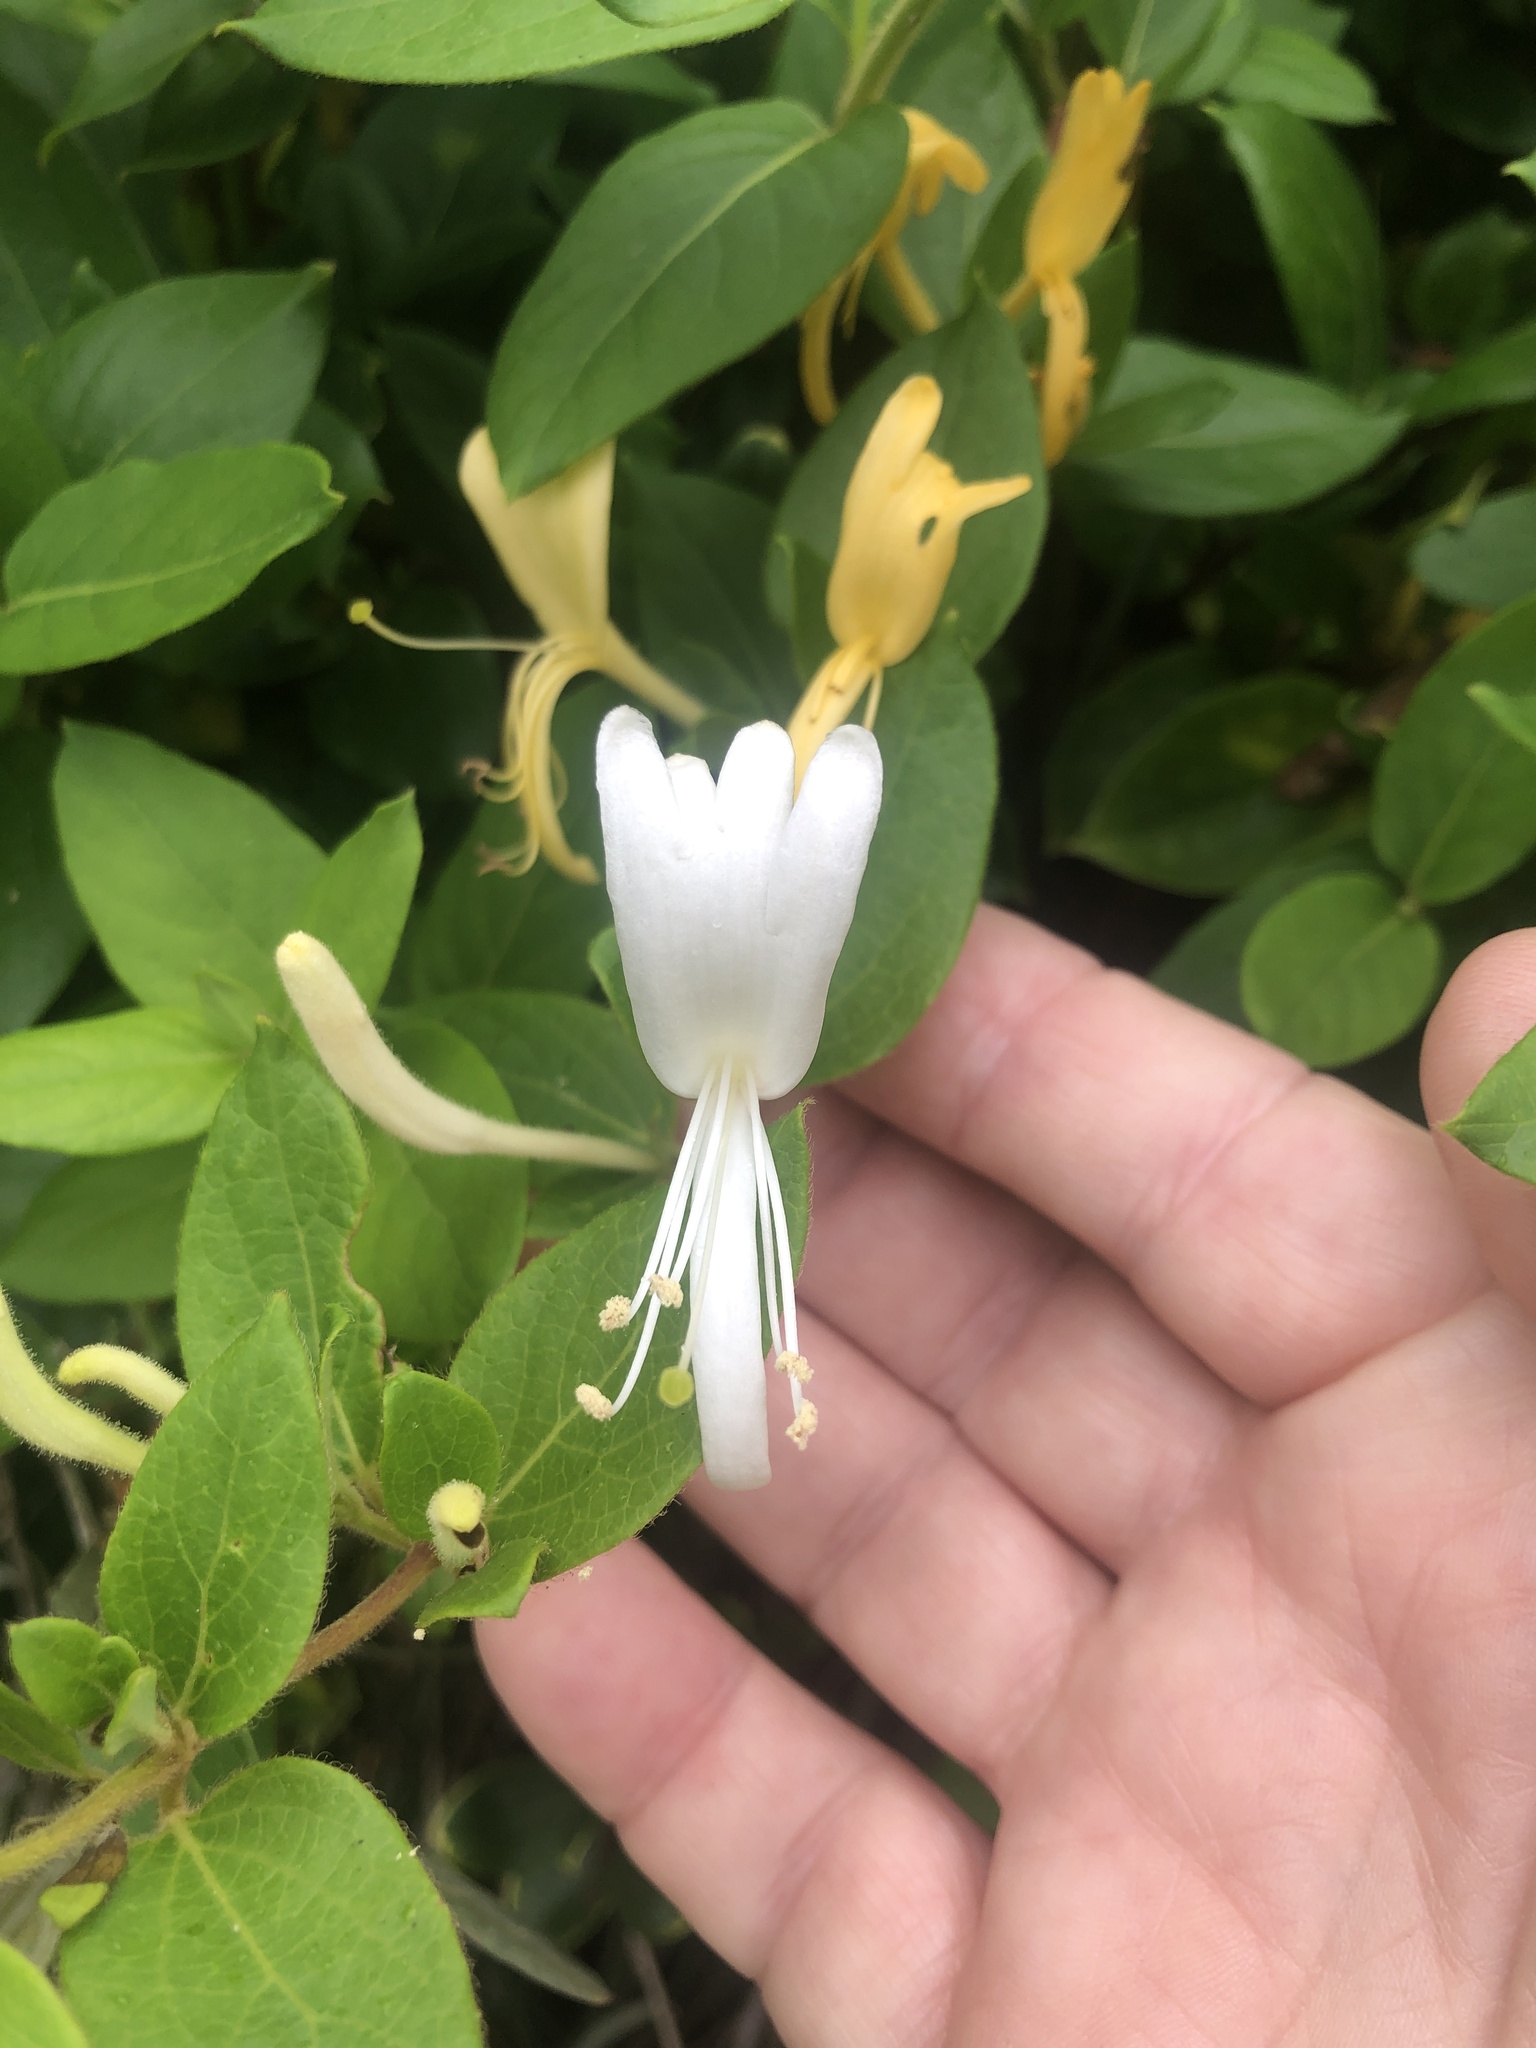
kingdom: Plantae
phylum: Tracheophyta
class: Magnoliopsida
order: Dipsacales
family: Caprifoliaceae
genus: Lonicera
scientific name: Lonicera japonica
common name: Japanese honeysuckle
